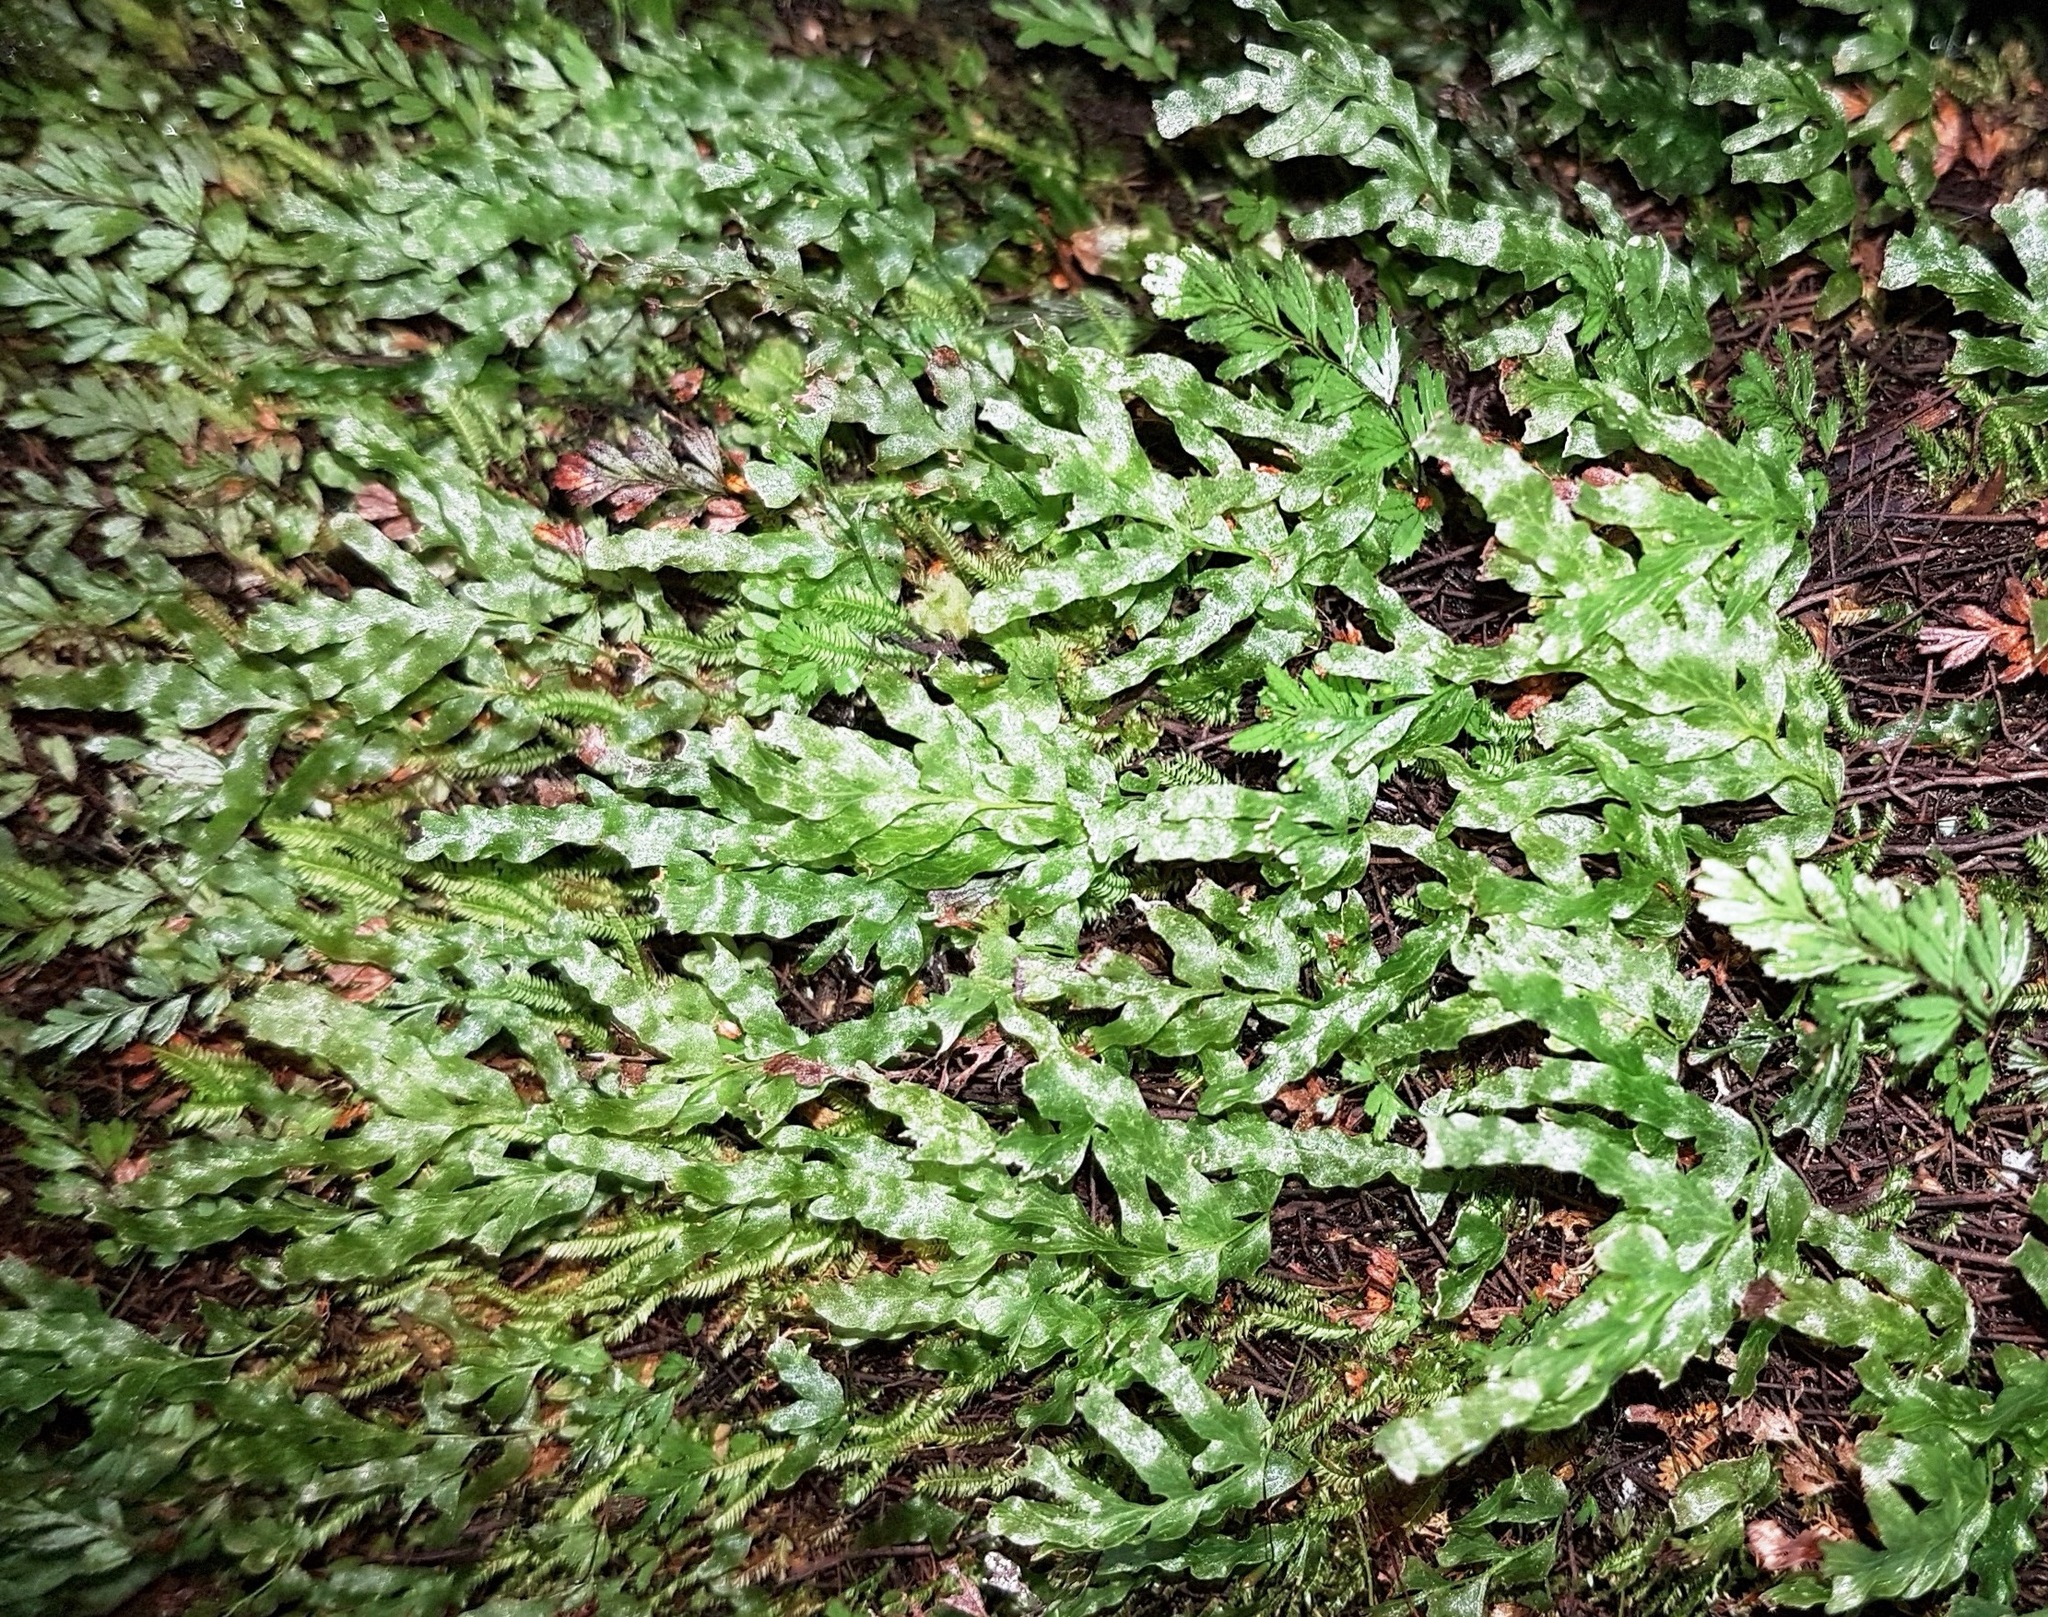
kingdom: Plantae
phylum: Tracheophyta
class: Polypodiopsida
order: Hymenophyllales
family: Hymenophyllaceae
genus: Polyphlebium
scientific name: Polyphlebium venosum
